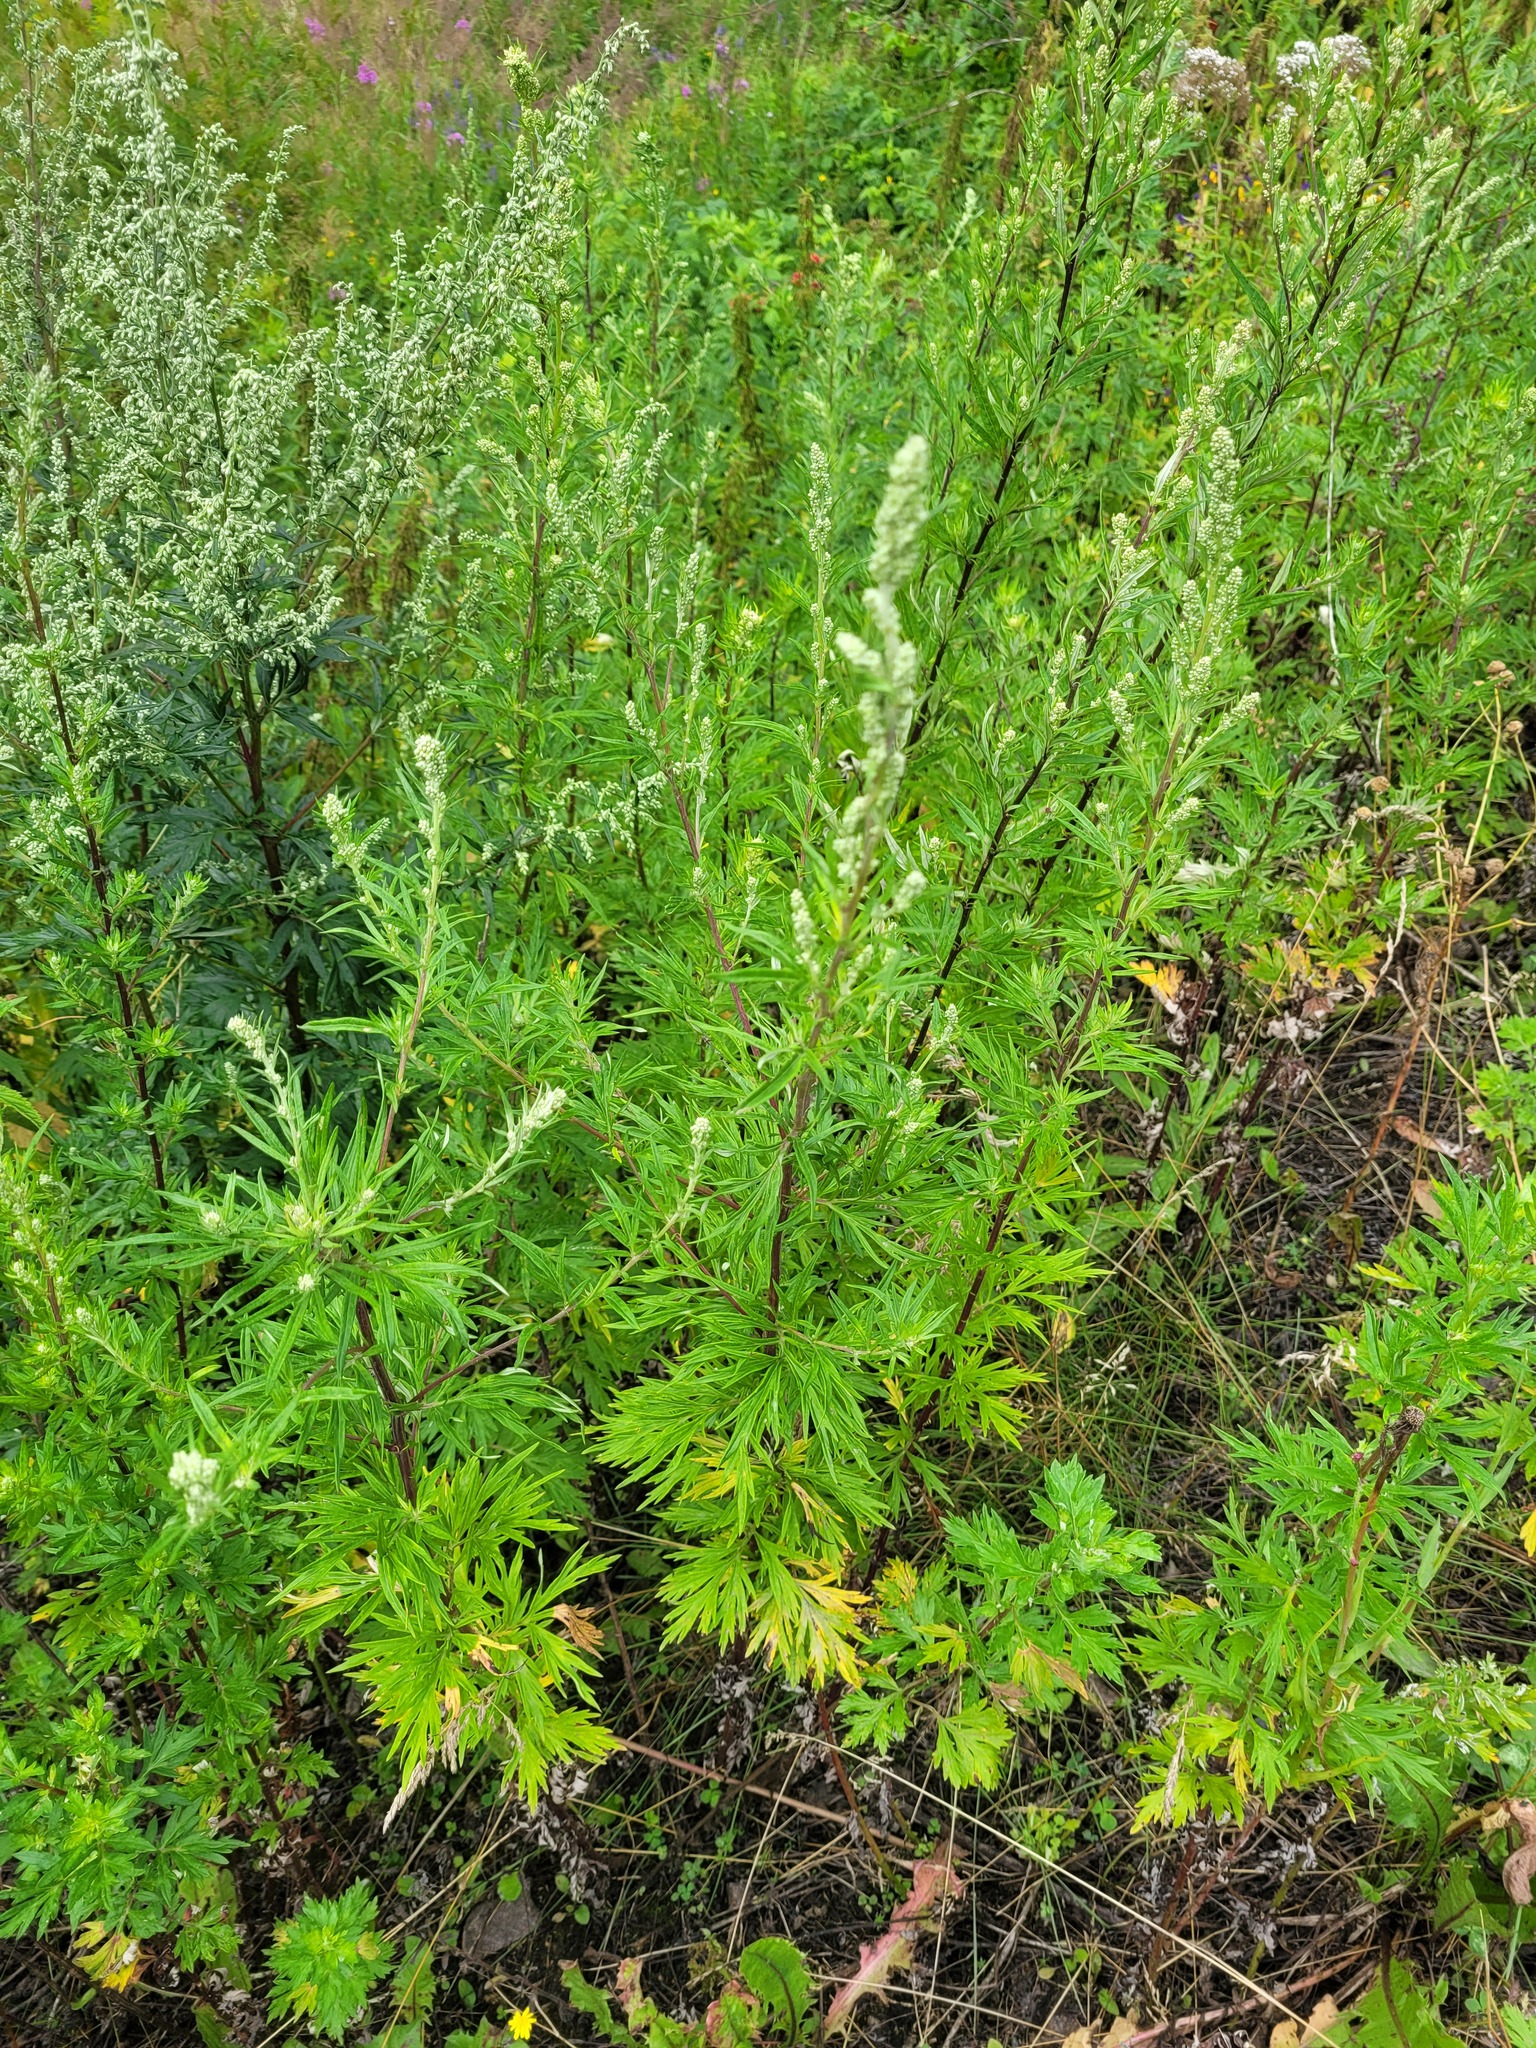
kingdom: Plantae
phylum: Tracheophyta
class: Magnoliopsida
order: Asterales
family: Asteraceae
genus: Artemisia
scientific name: Artemisia vulgaris
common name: Mugwort
